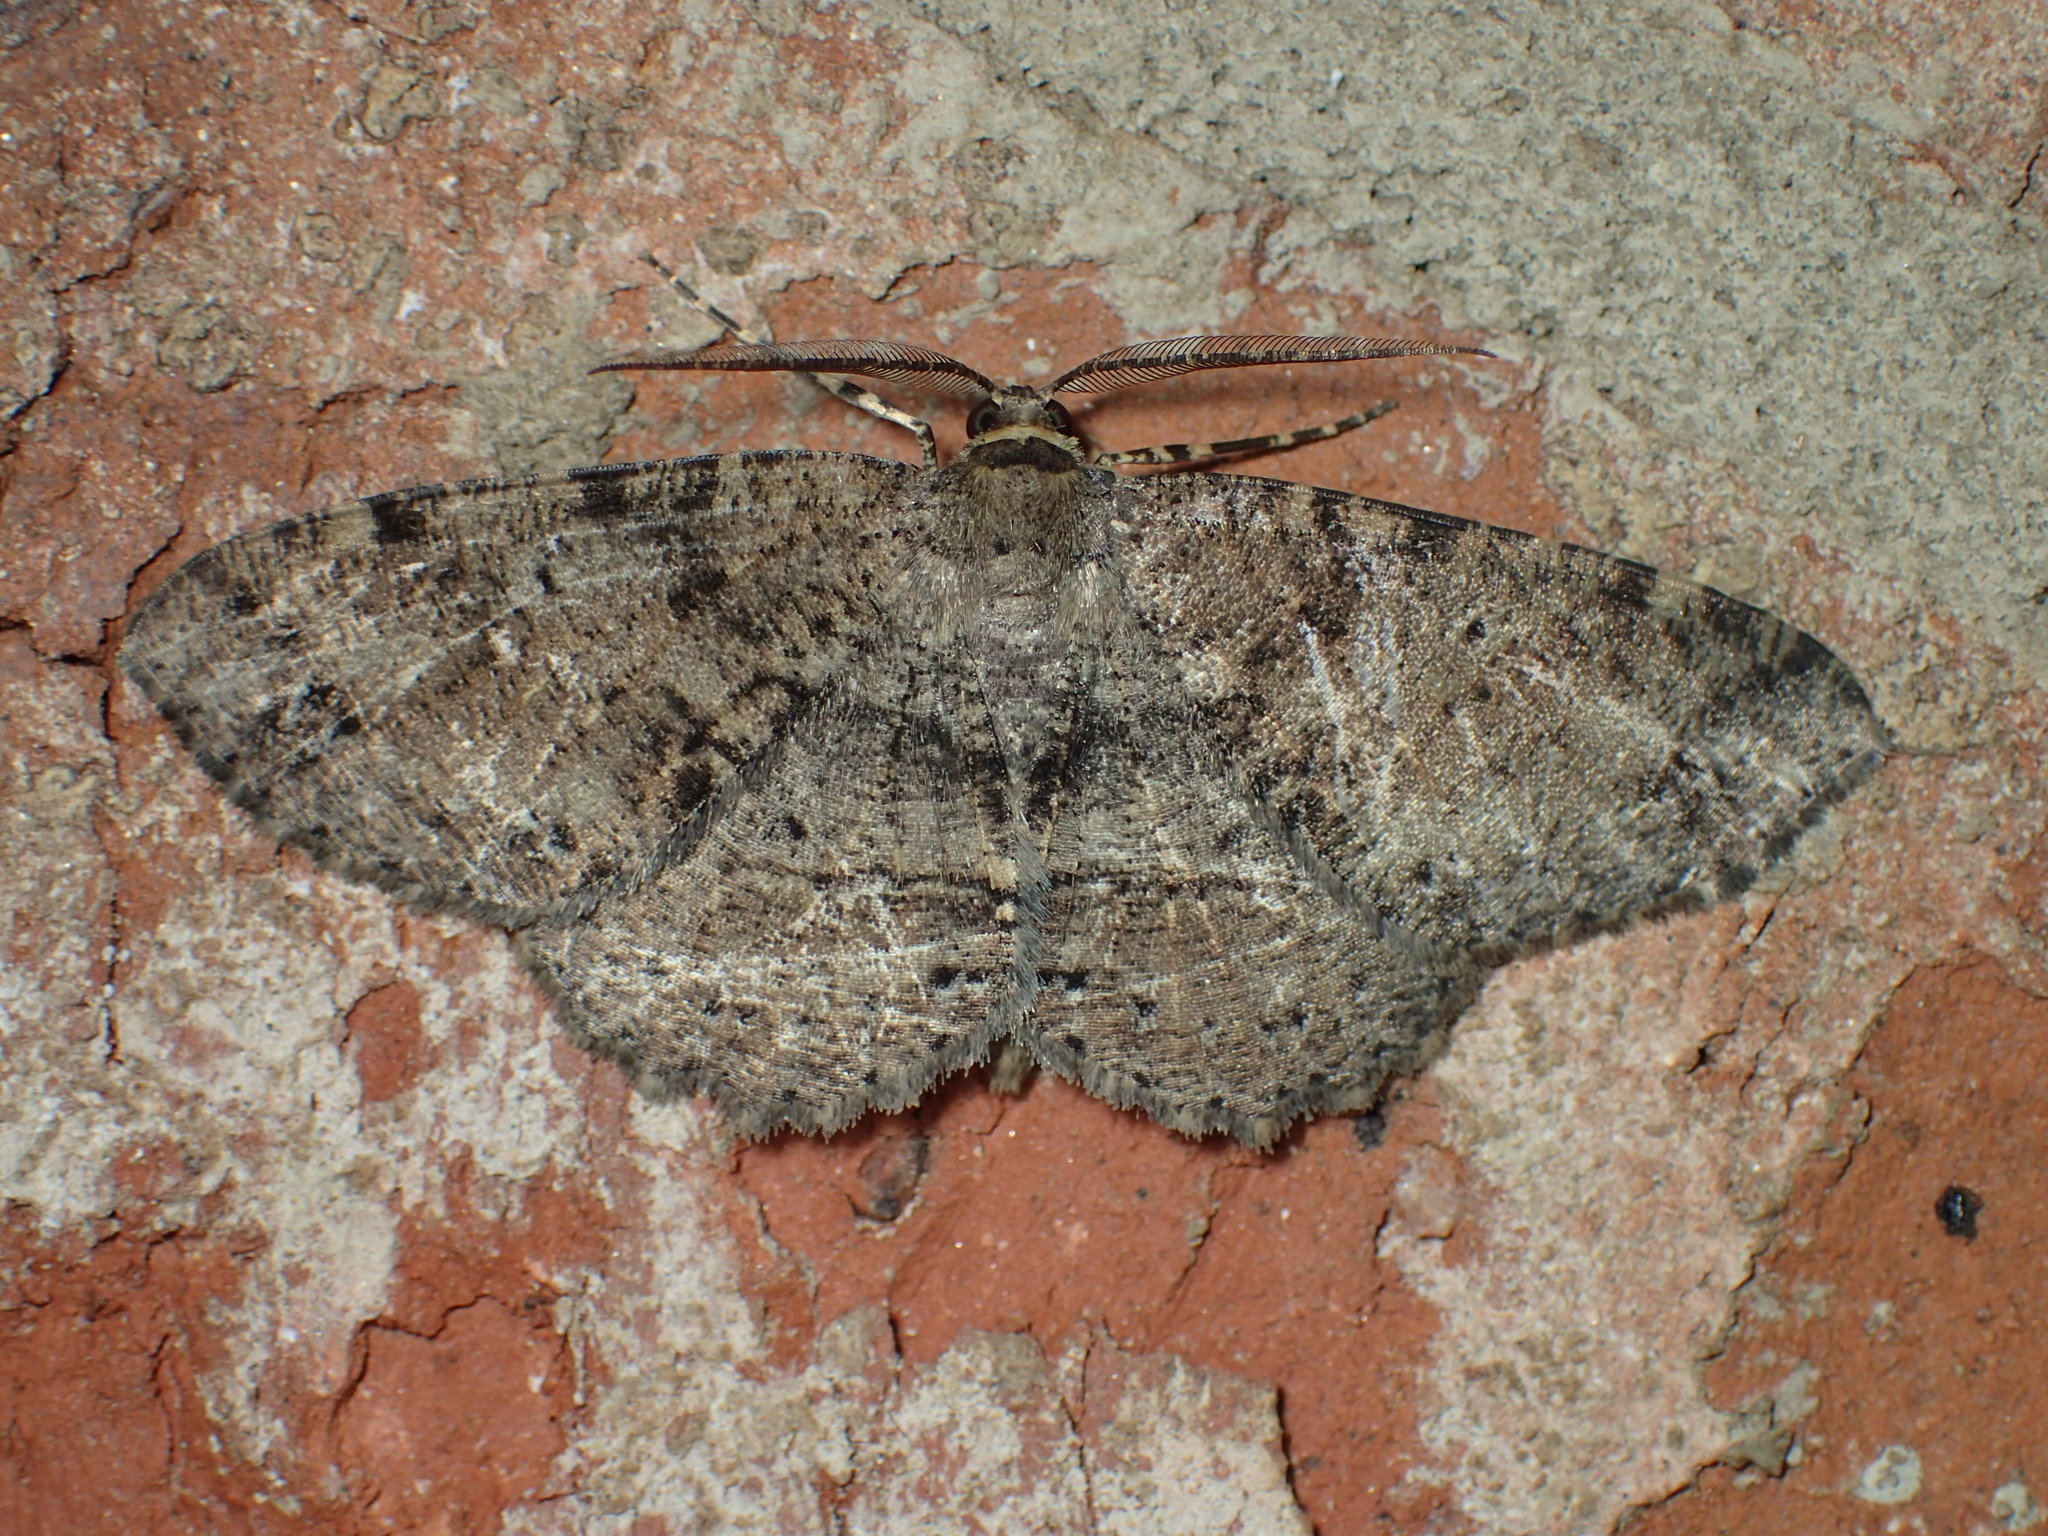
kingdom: Animalia
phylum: Arthropoda
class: Insecta
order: Lepidoptera
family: Geometridae
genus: Melanolophia
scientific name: Melanolophia canadaria
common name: Canadian melanolophia
